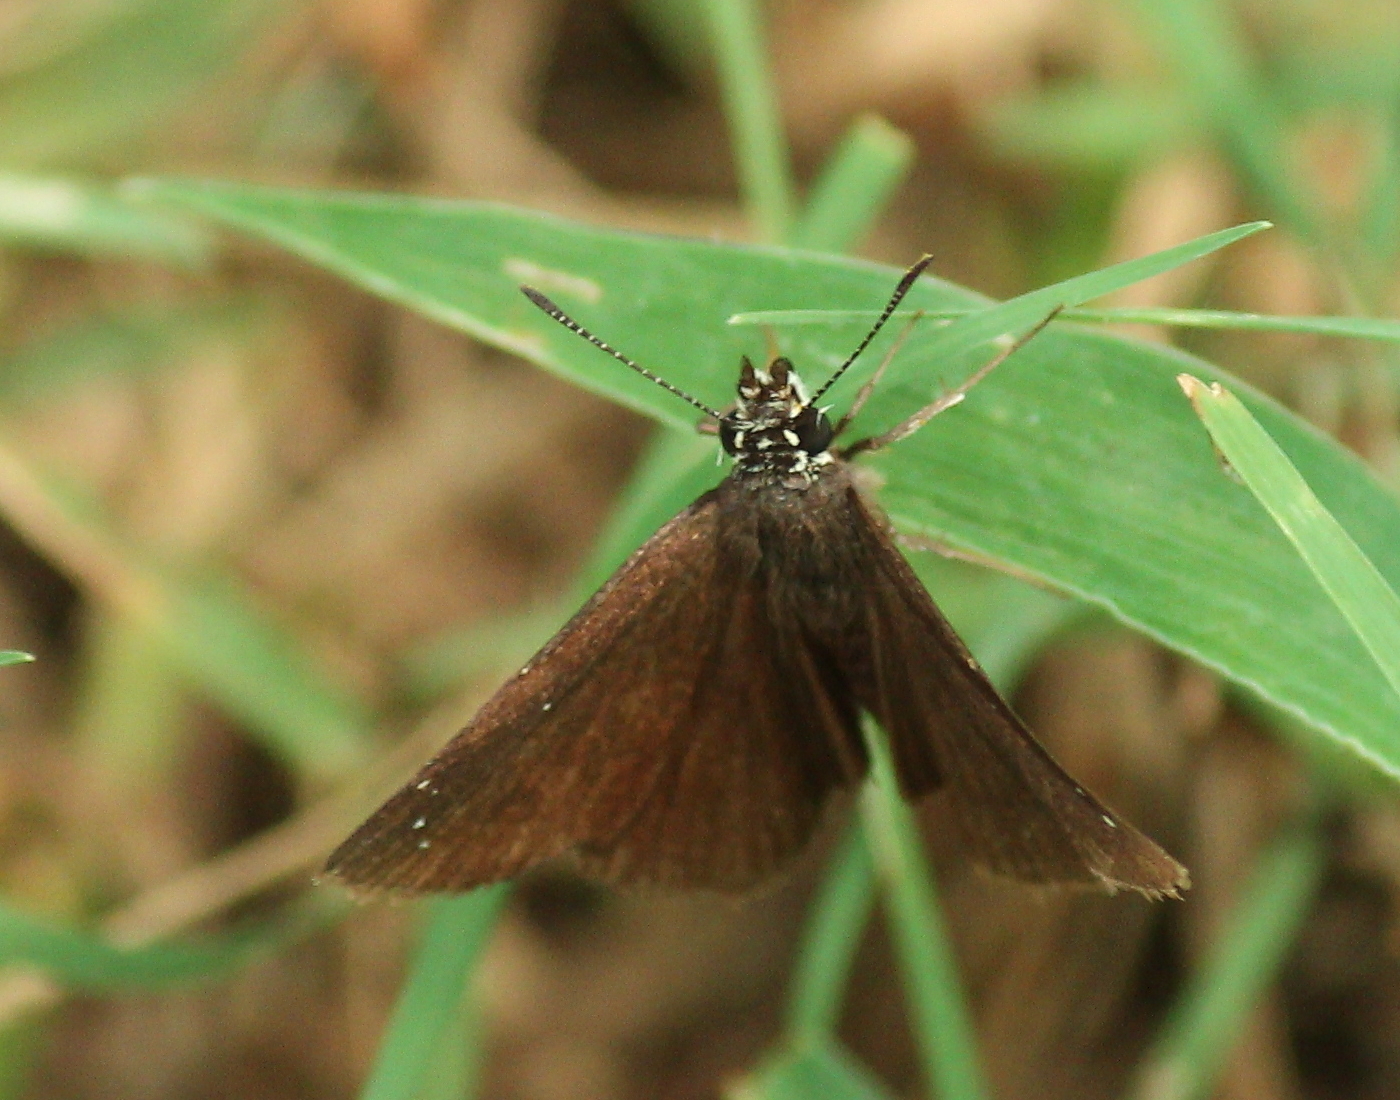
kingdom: Animalia
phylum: Arthropoda
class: Insecta
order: Lepidoptera
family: Hesperiidae
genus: Pholisora
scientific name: Pholisora catullus
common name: Common sootywing
